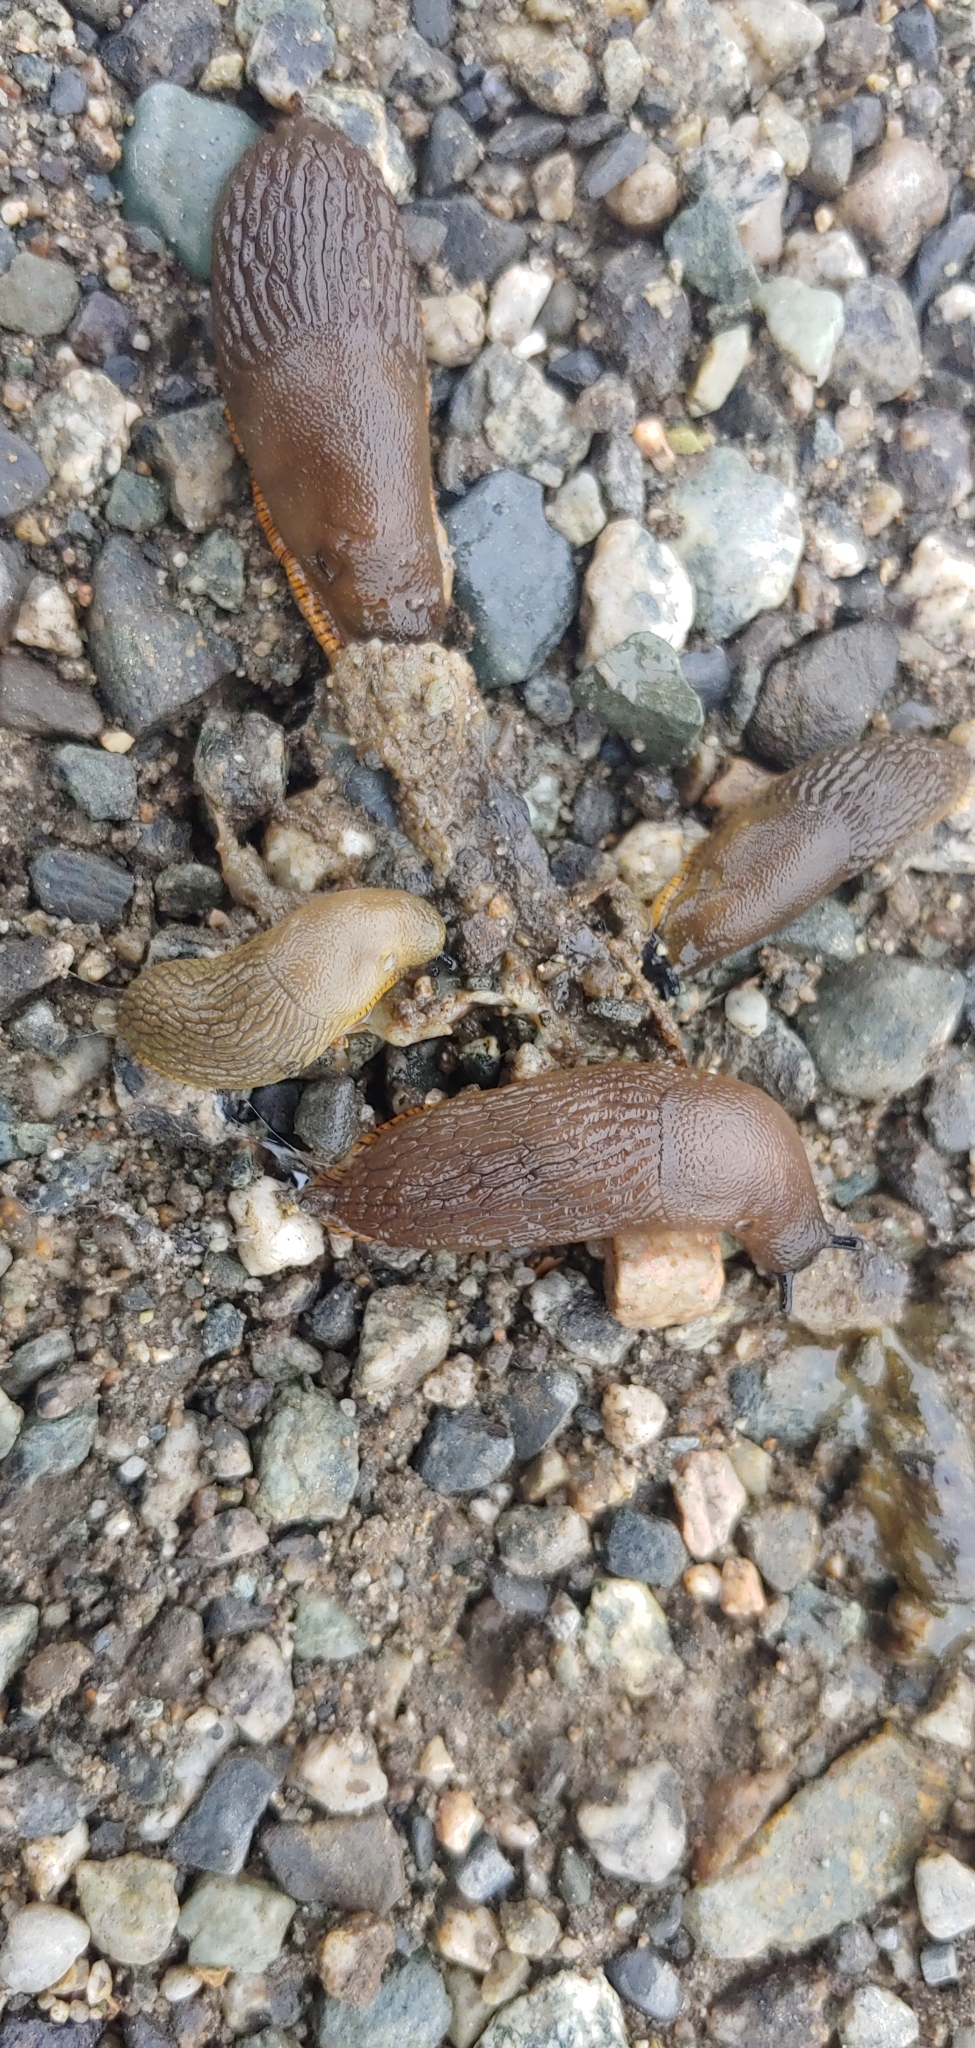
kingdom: Animalia
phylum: Mollusca
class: Gastropoda
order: Stylommatophora
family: Arionidae
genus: Arion
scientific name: Arion rufus
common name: Chocolate arion
